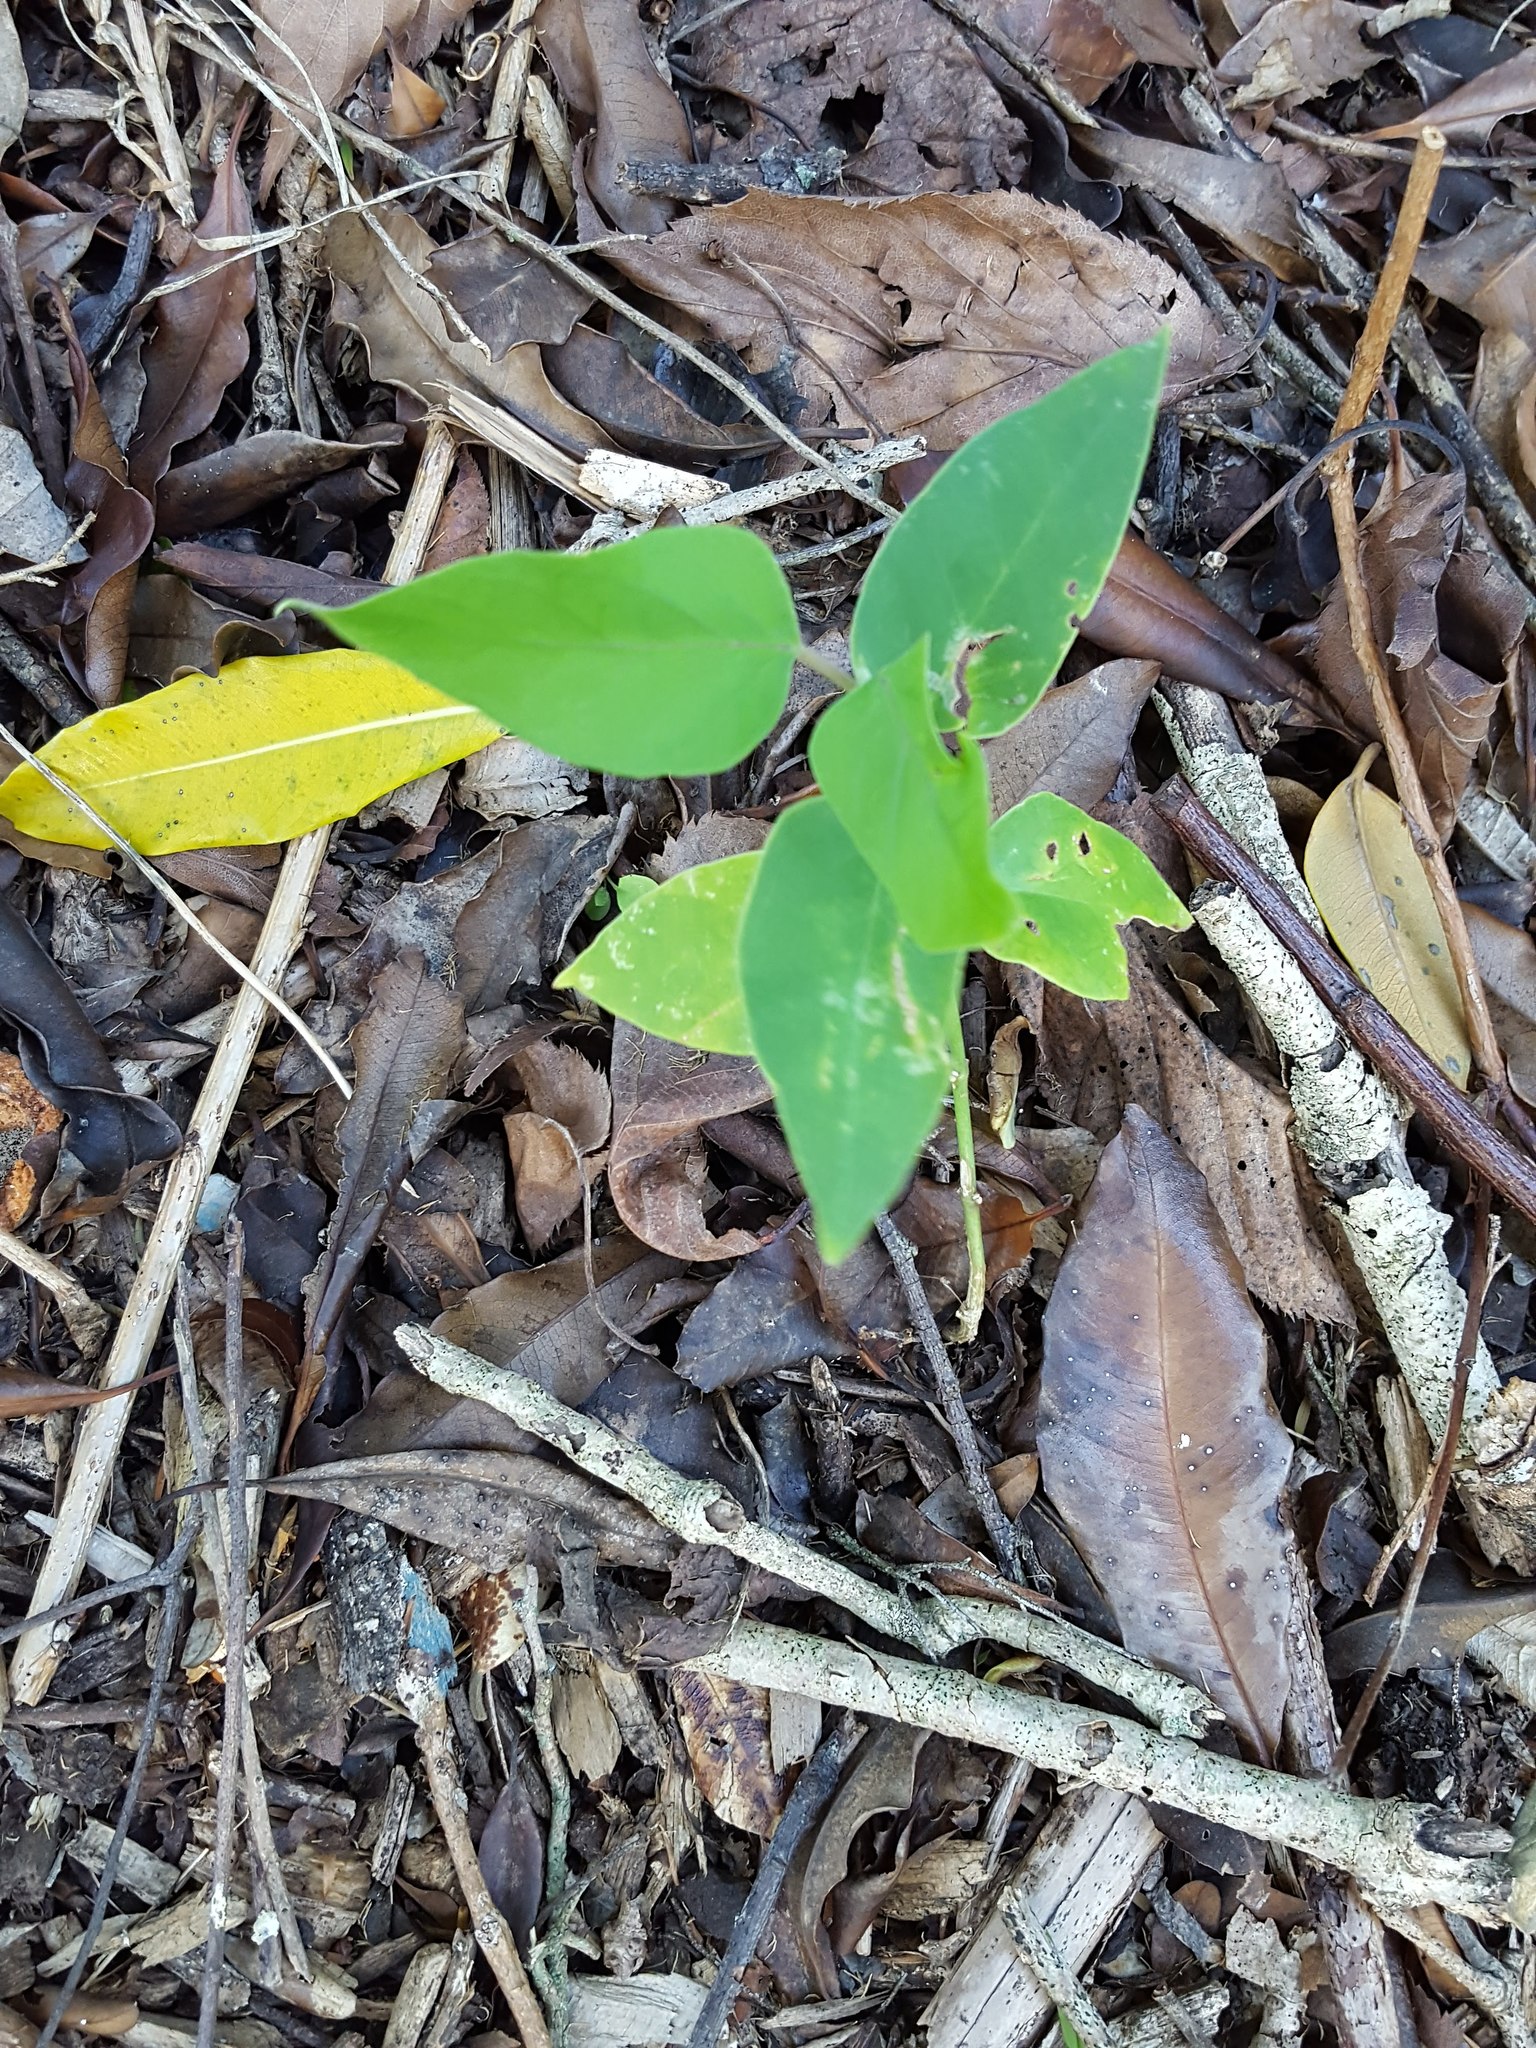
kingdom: Plantae
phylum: Tracheophyta
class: Magnoliopsida
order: Gentianales
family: Apocynaceae
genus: Araujia
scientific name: Araujia sericifera
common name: White bladderflower
